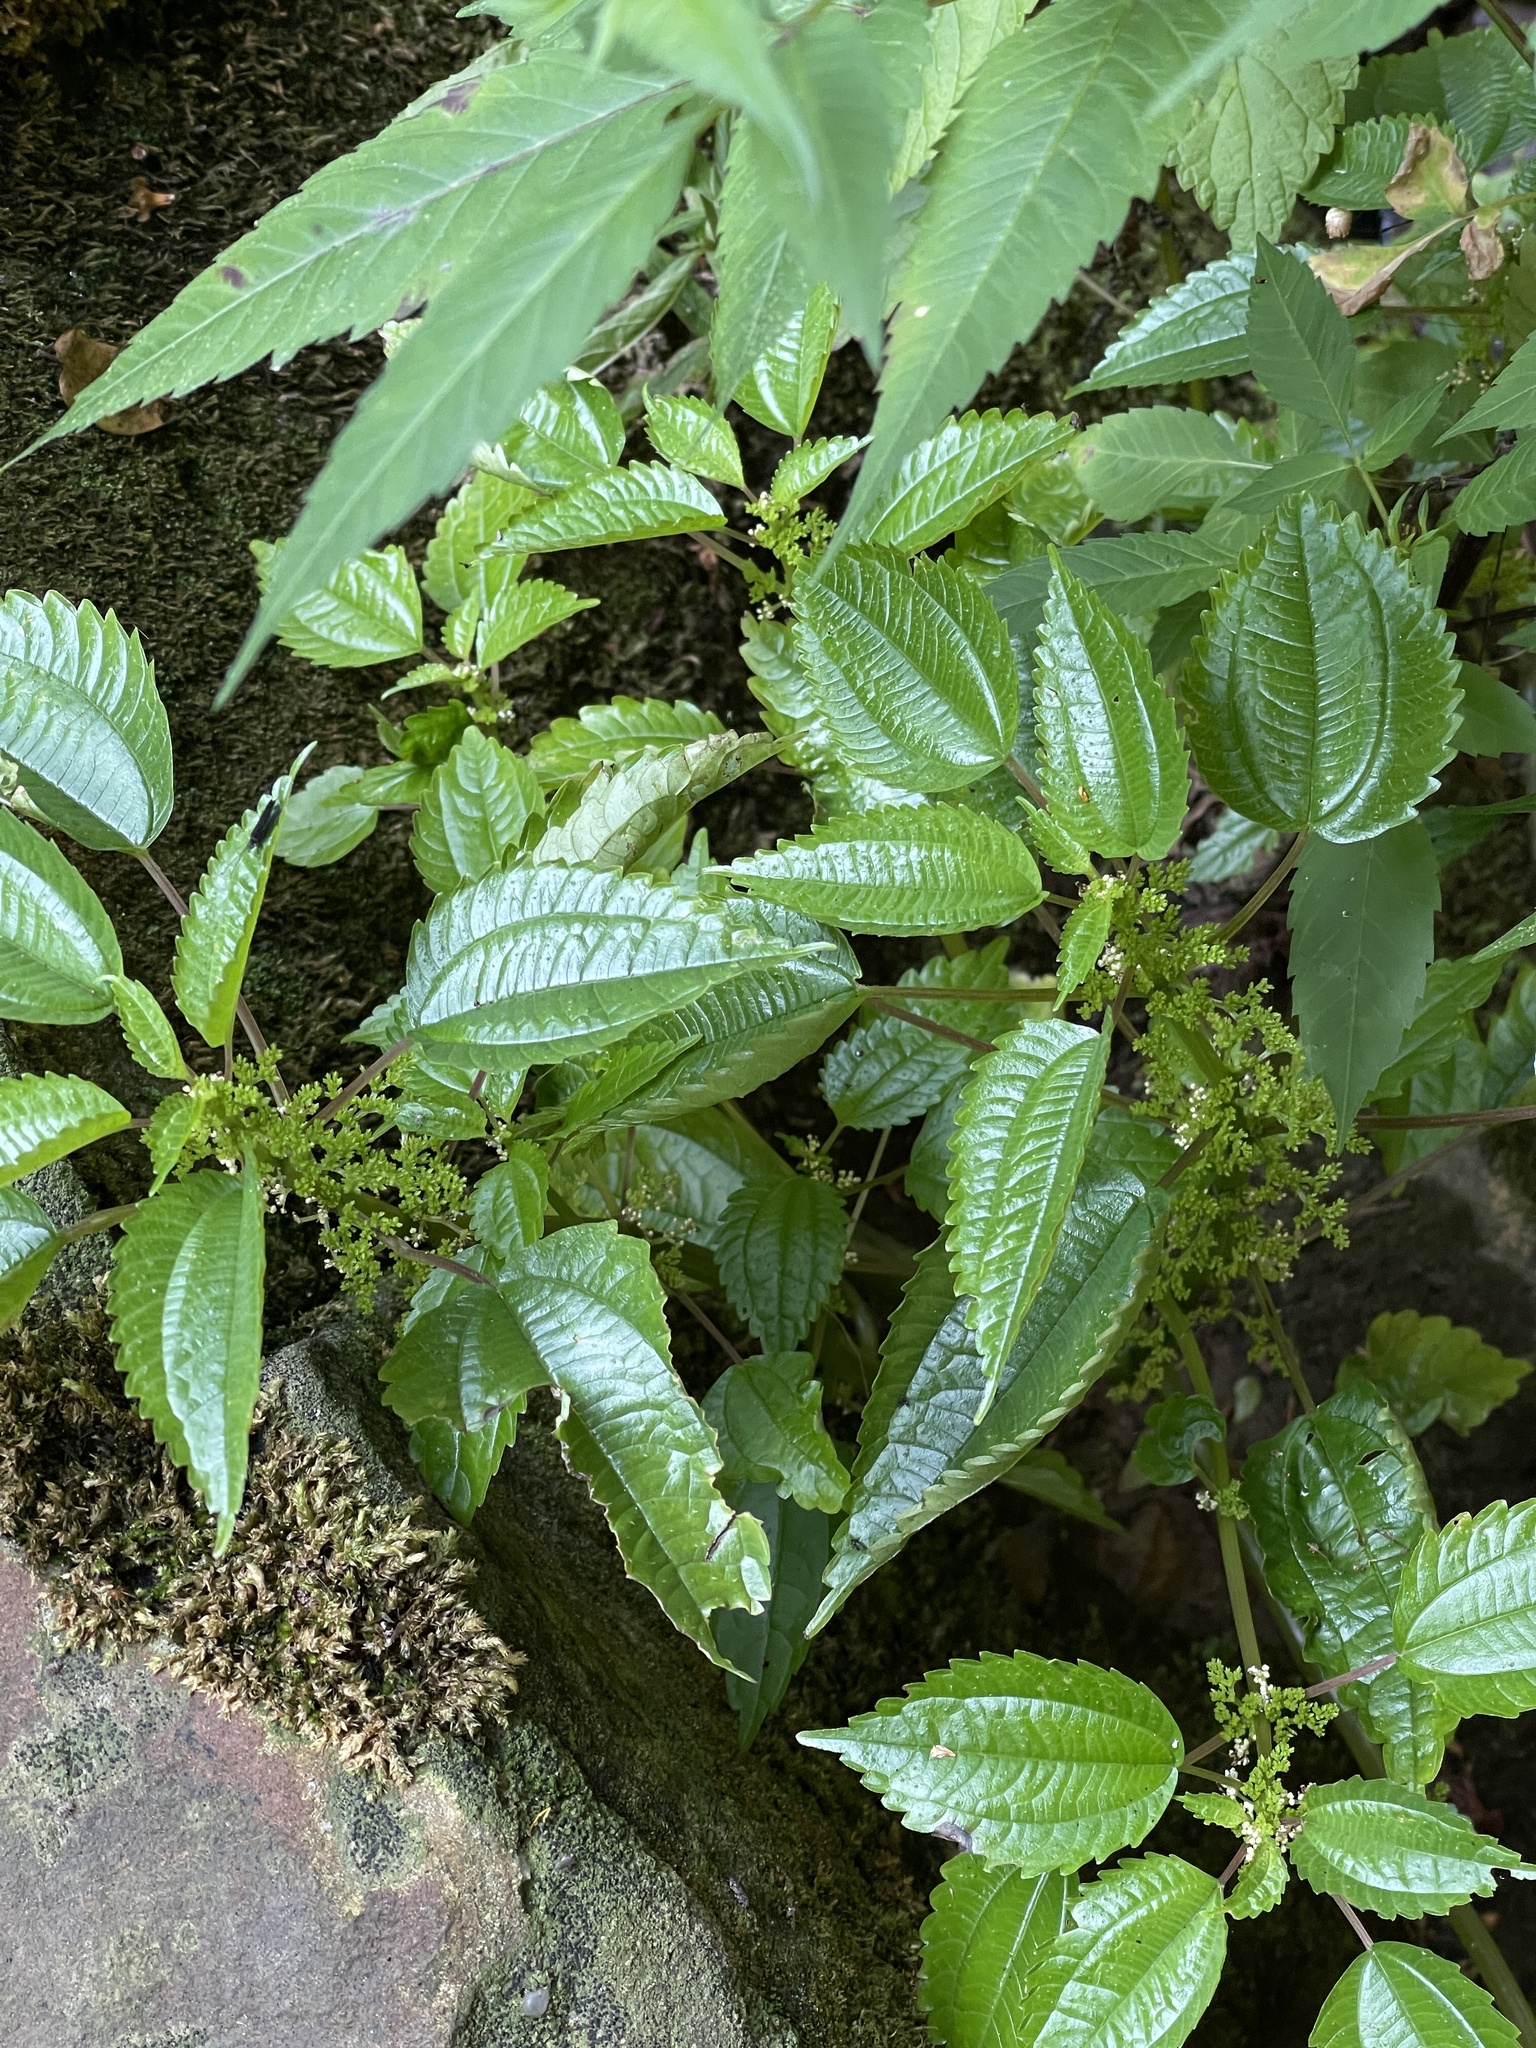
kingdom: Plantae
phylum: Tracheophyta
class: Magnoliopsida
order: Rosales
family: Urticaceae
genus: Pilea
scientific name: Pilea pumila
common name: Clearweed
